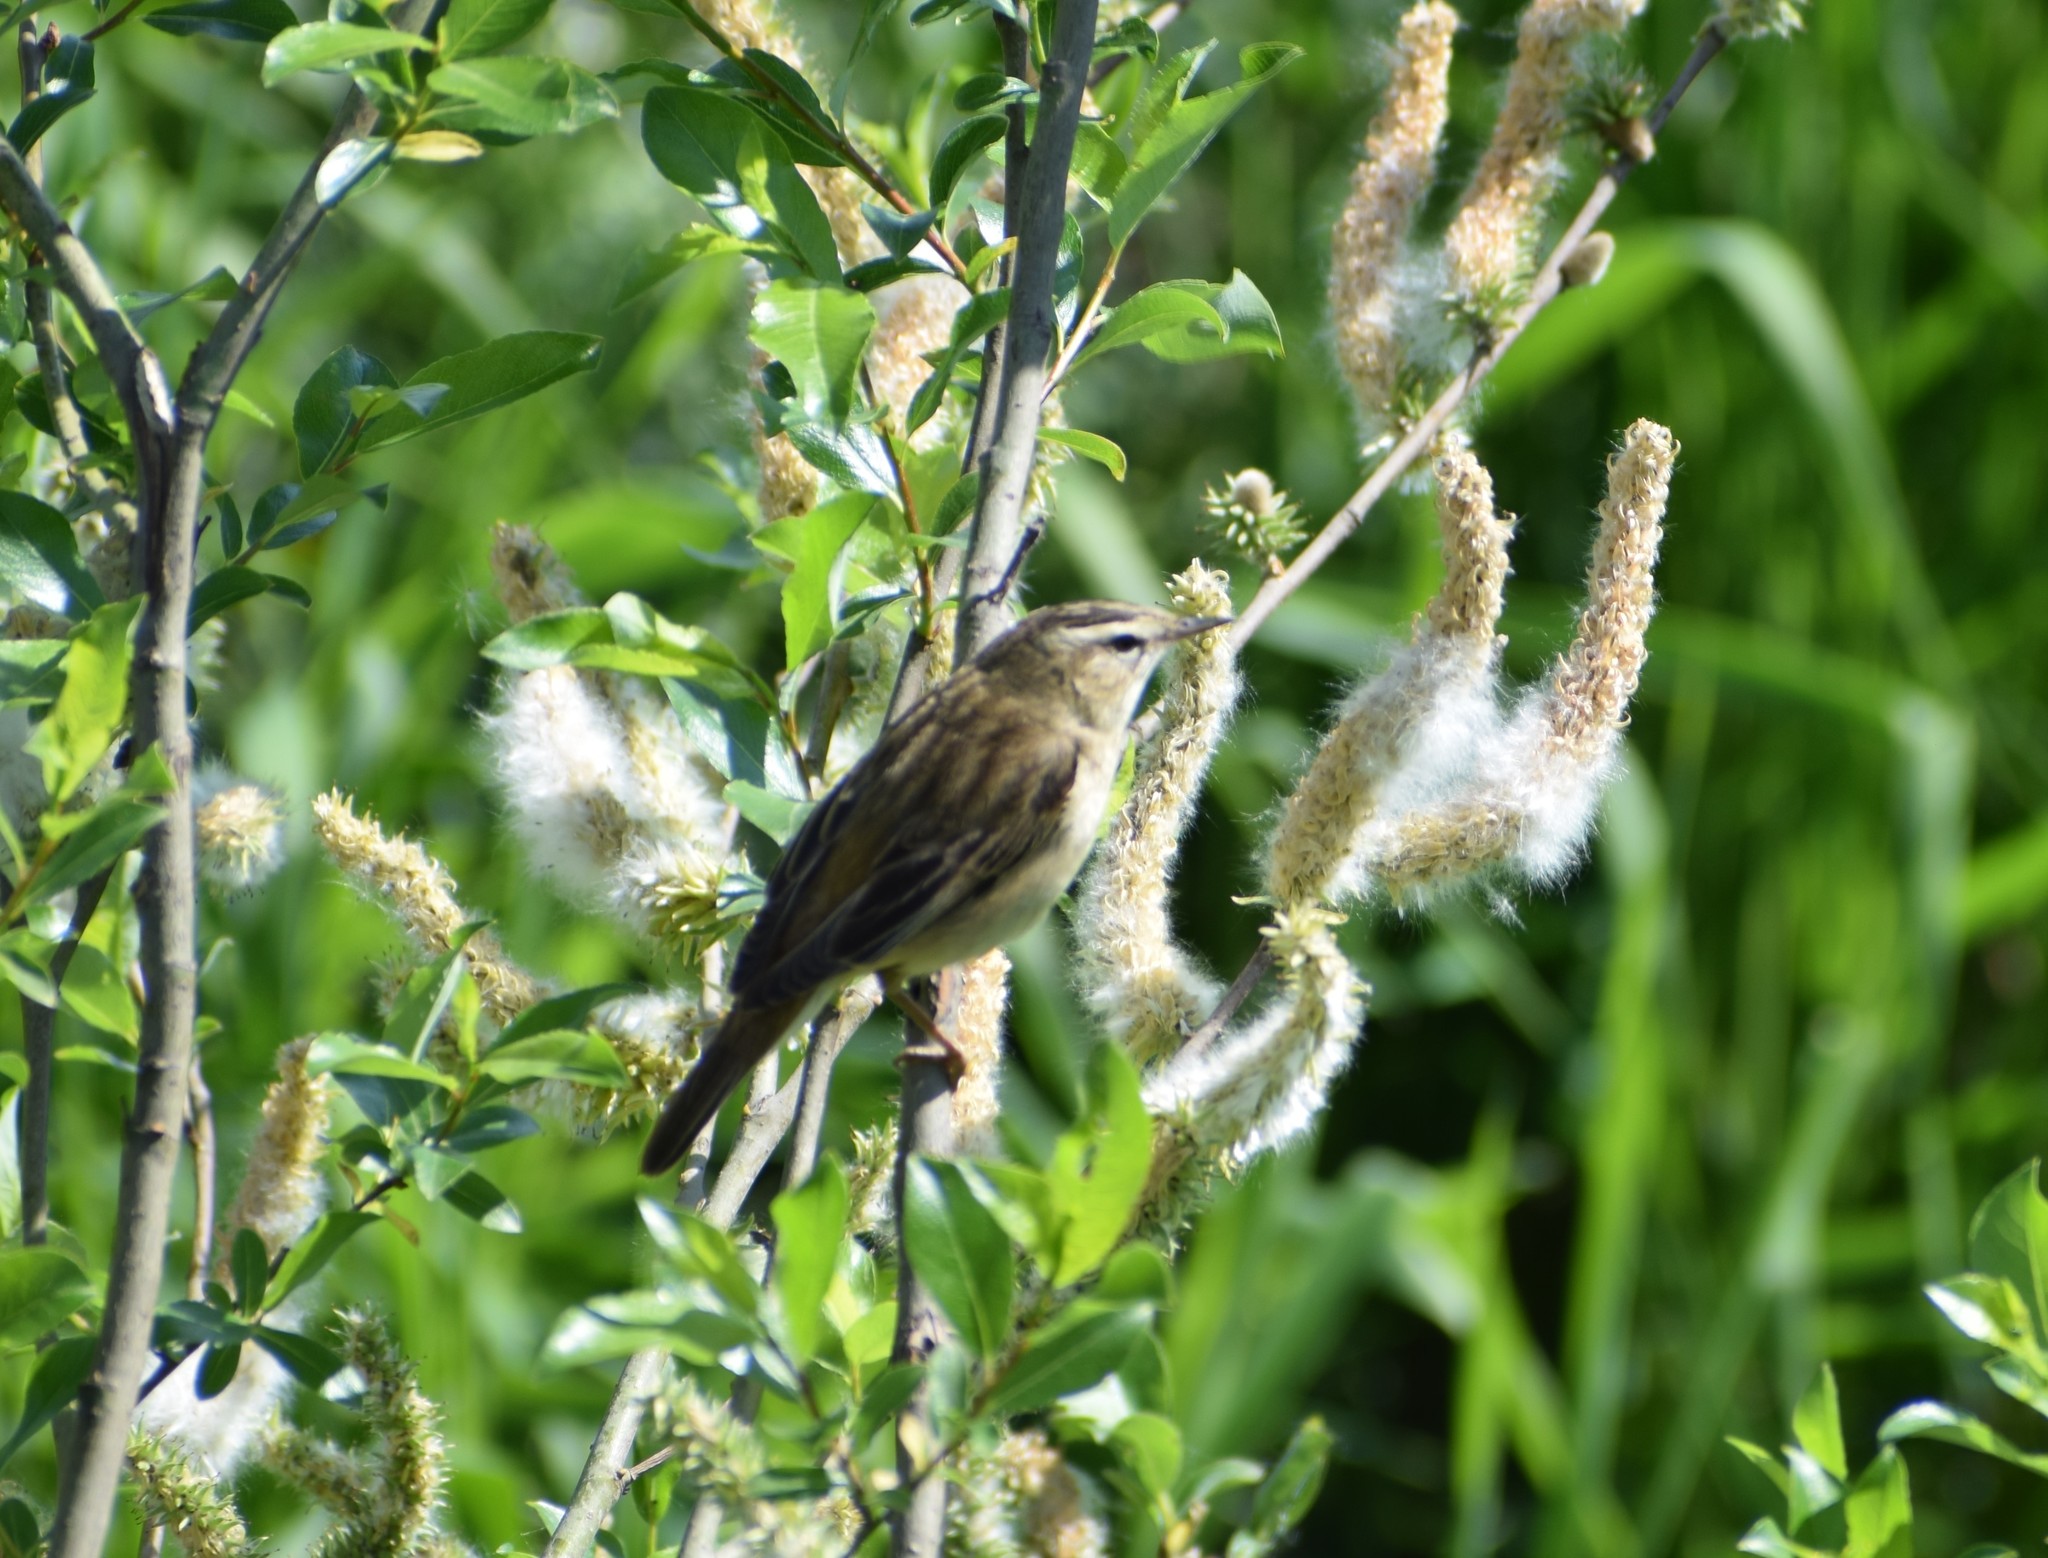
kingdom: Animalia
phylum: Chordata
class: Aves
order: Passeriformes
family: Acrocephalidae
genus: Acrocephalus
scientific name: Acrocephalus schoenobaenus
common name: Sedge warbler
